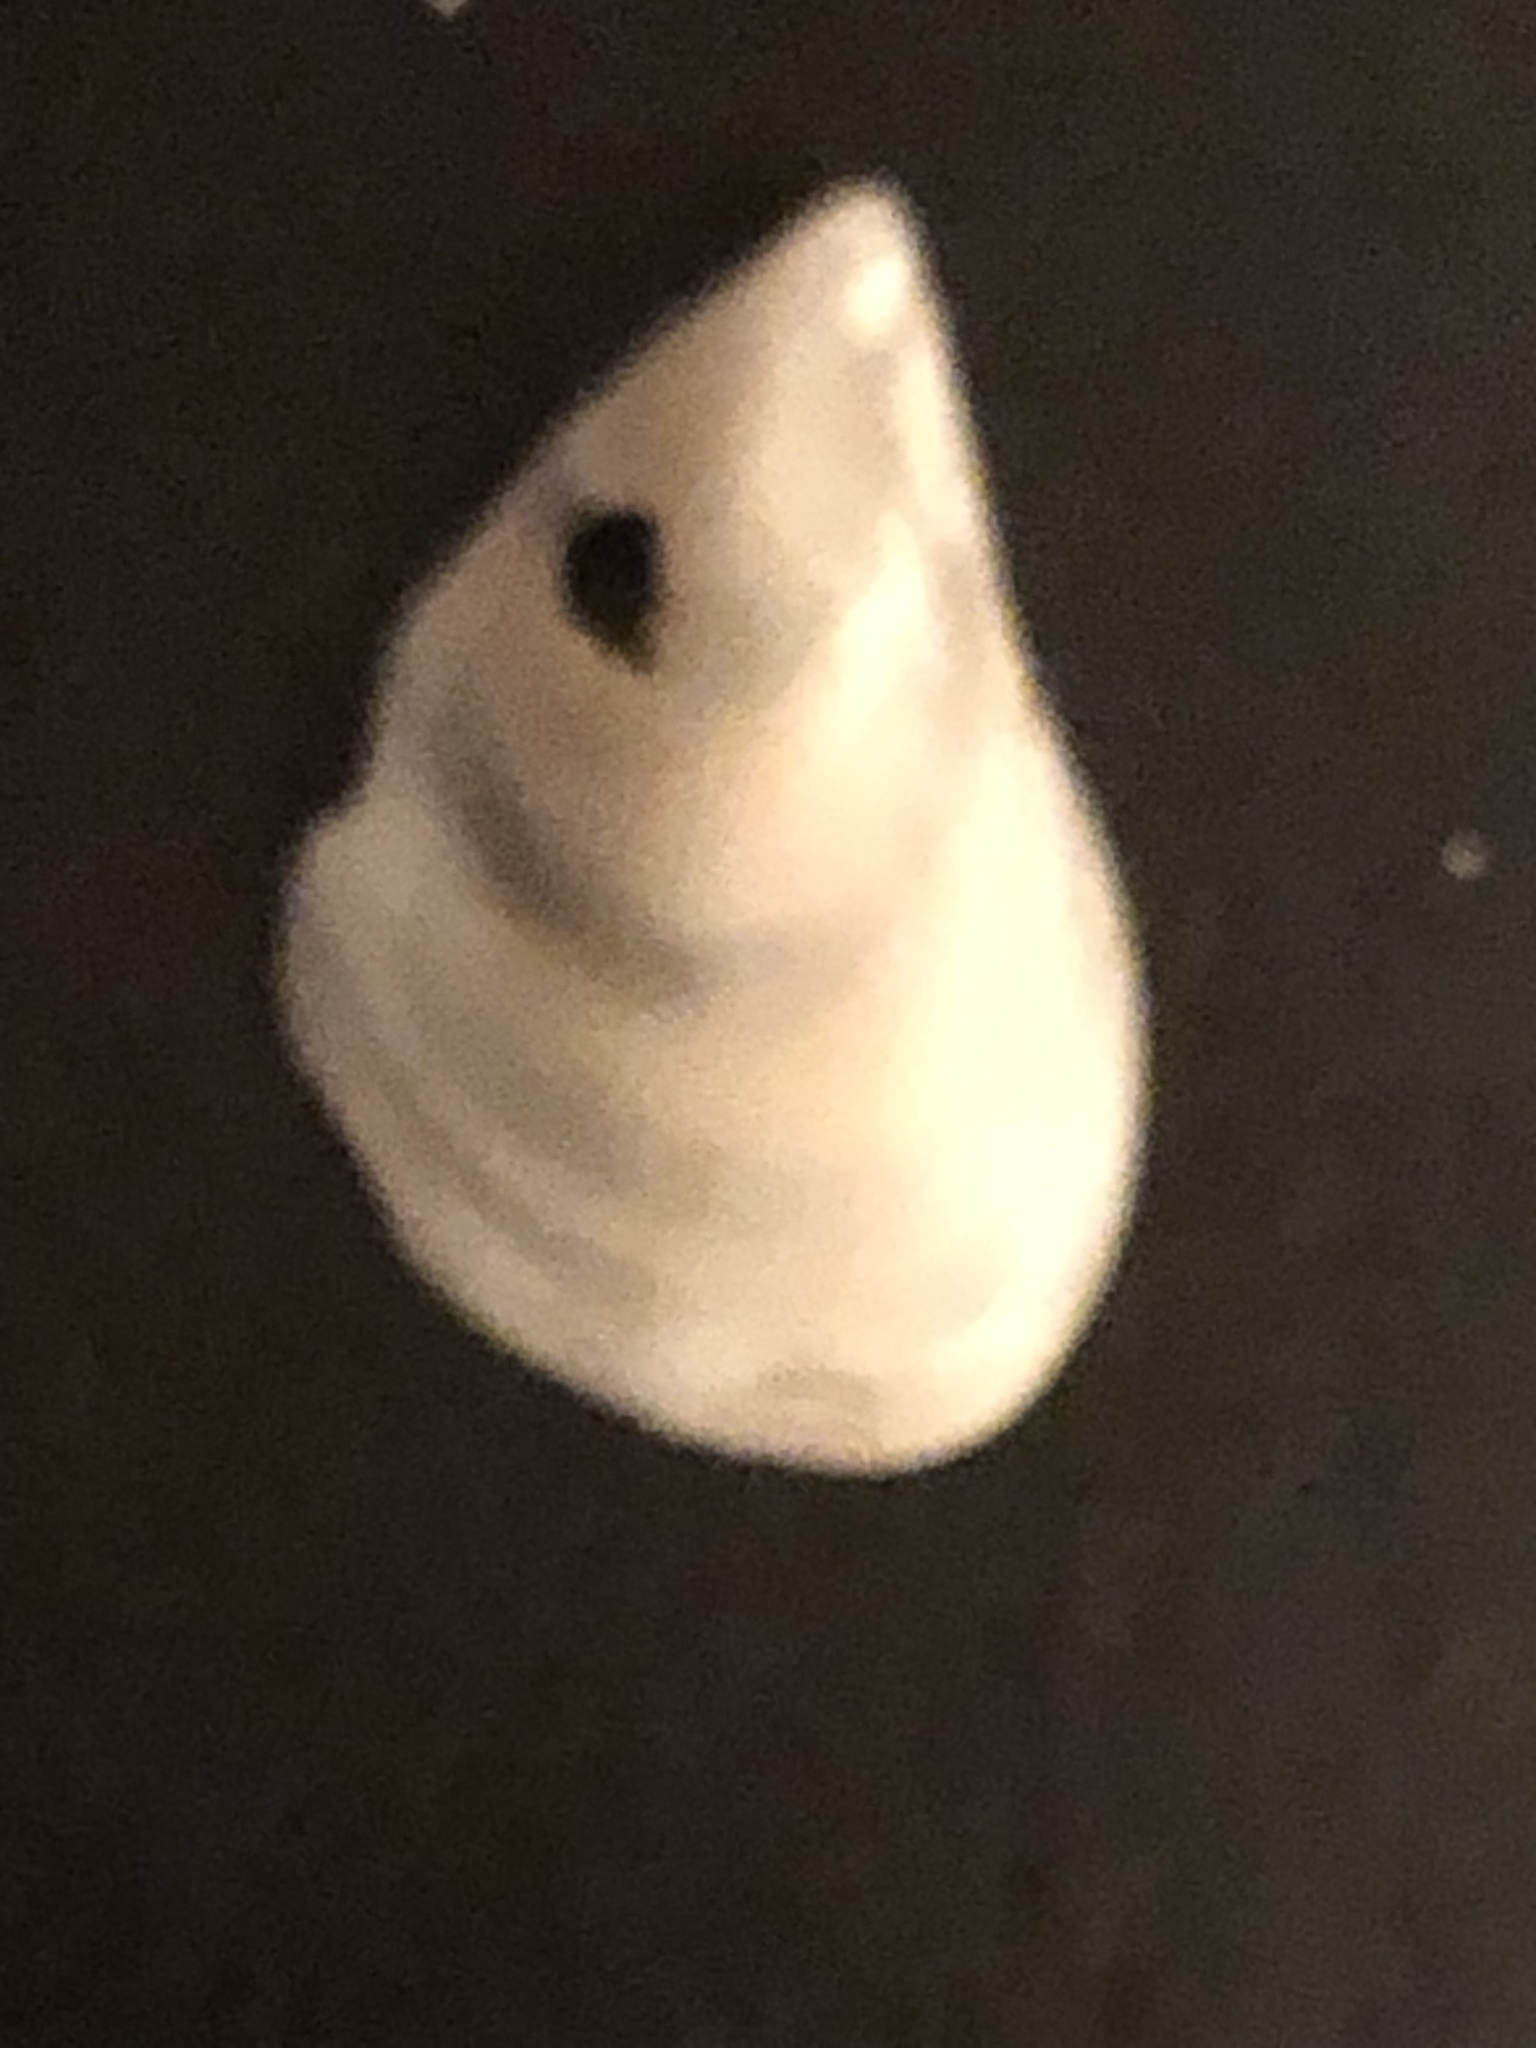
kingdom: Animalia
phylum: Mollusca
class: Bivalvia
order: Myida
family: Dreissenidae
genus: Dreissena
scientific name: Dreissena bugensis
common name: Quagga mussel
